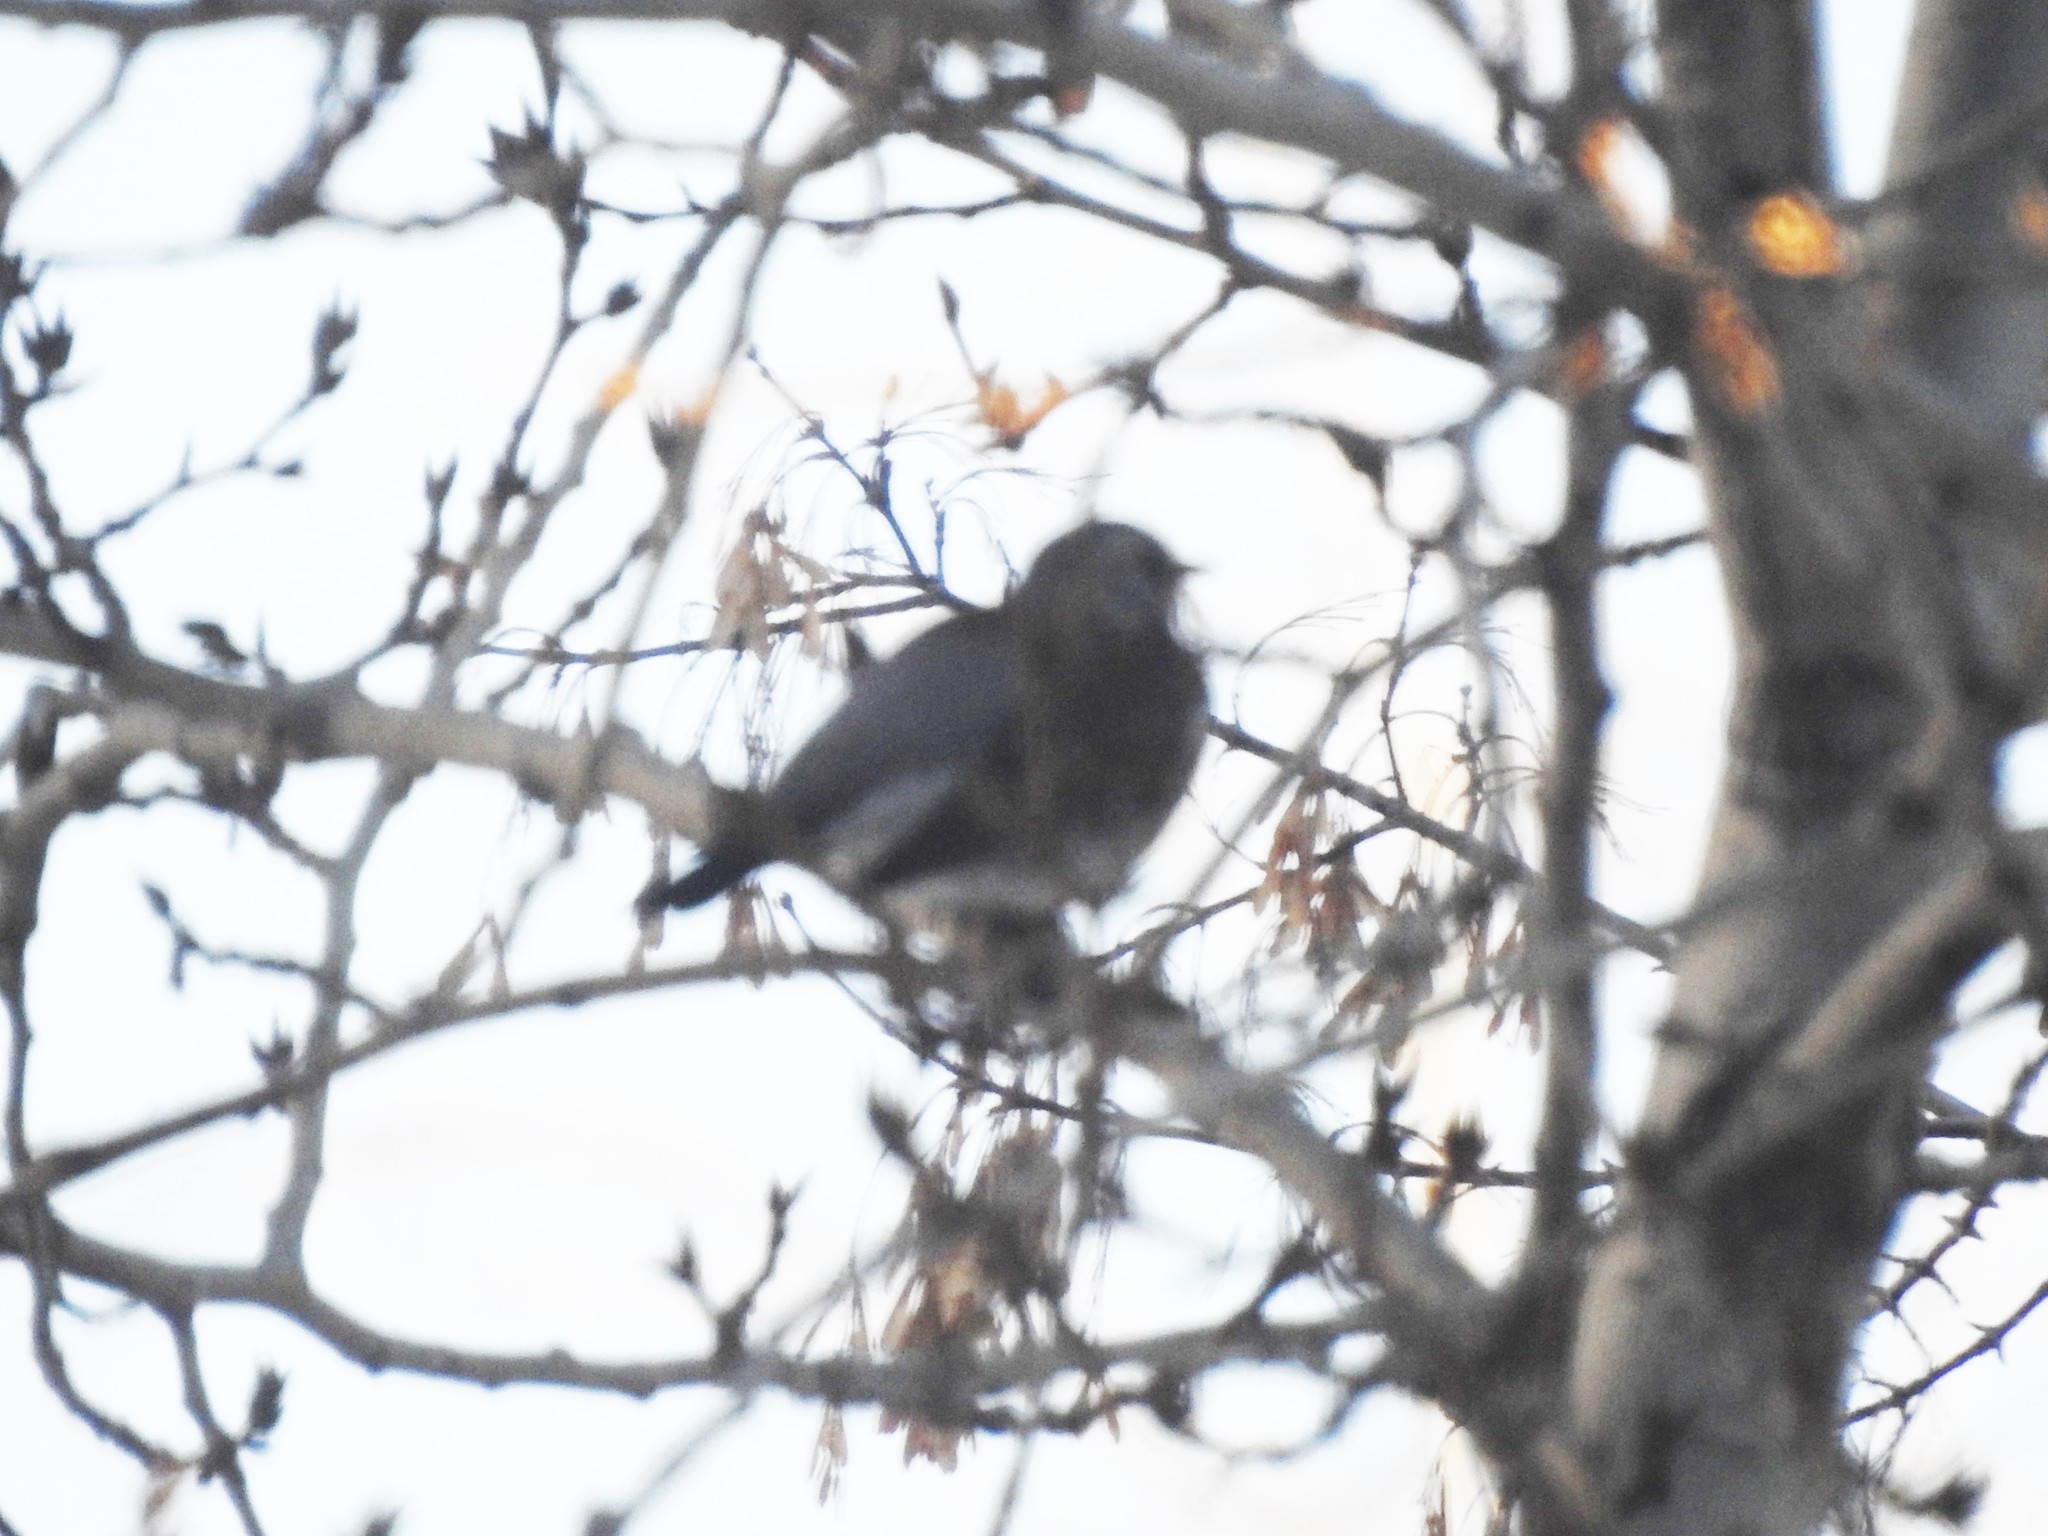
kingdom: Animalia
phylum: Chordata
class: Aves
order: Passeriformes
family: Turdidae
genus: Turdus
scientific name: Turdus pilaris
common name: Fieldfare
